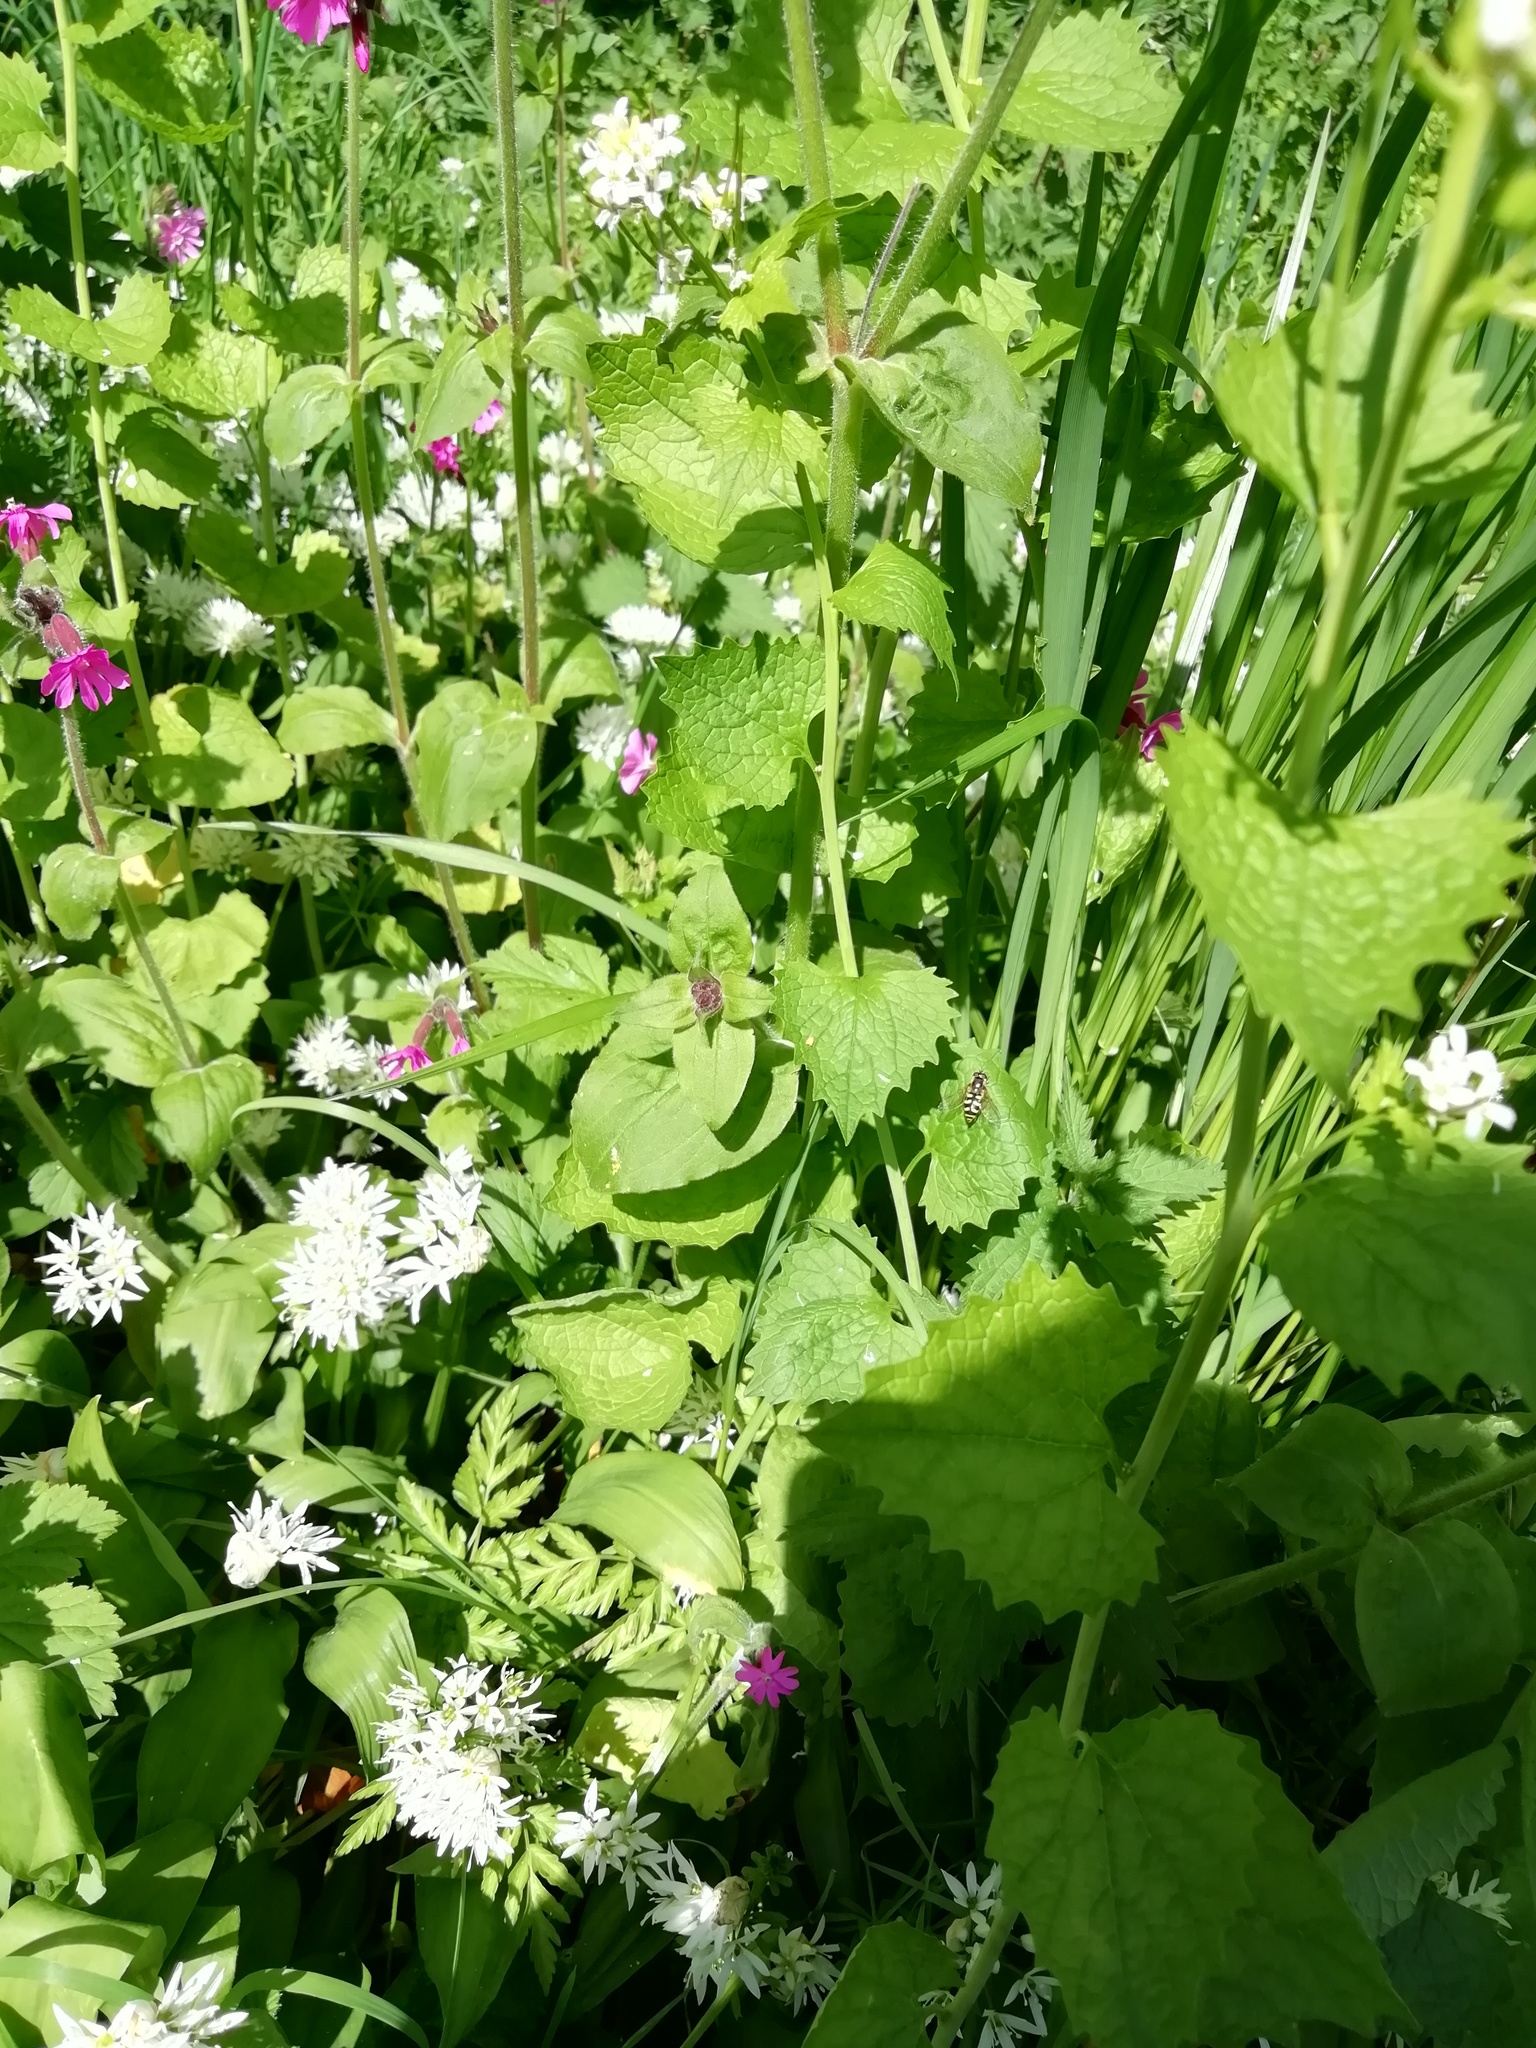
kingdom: Animalia
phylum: Arthropoda
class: Insecta
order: Diptera
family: Syrphidae
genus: Eupeodes
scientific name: Eupeodes
